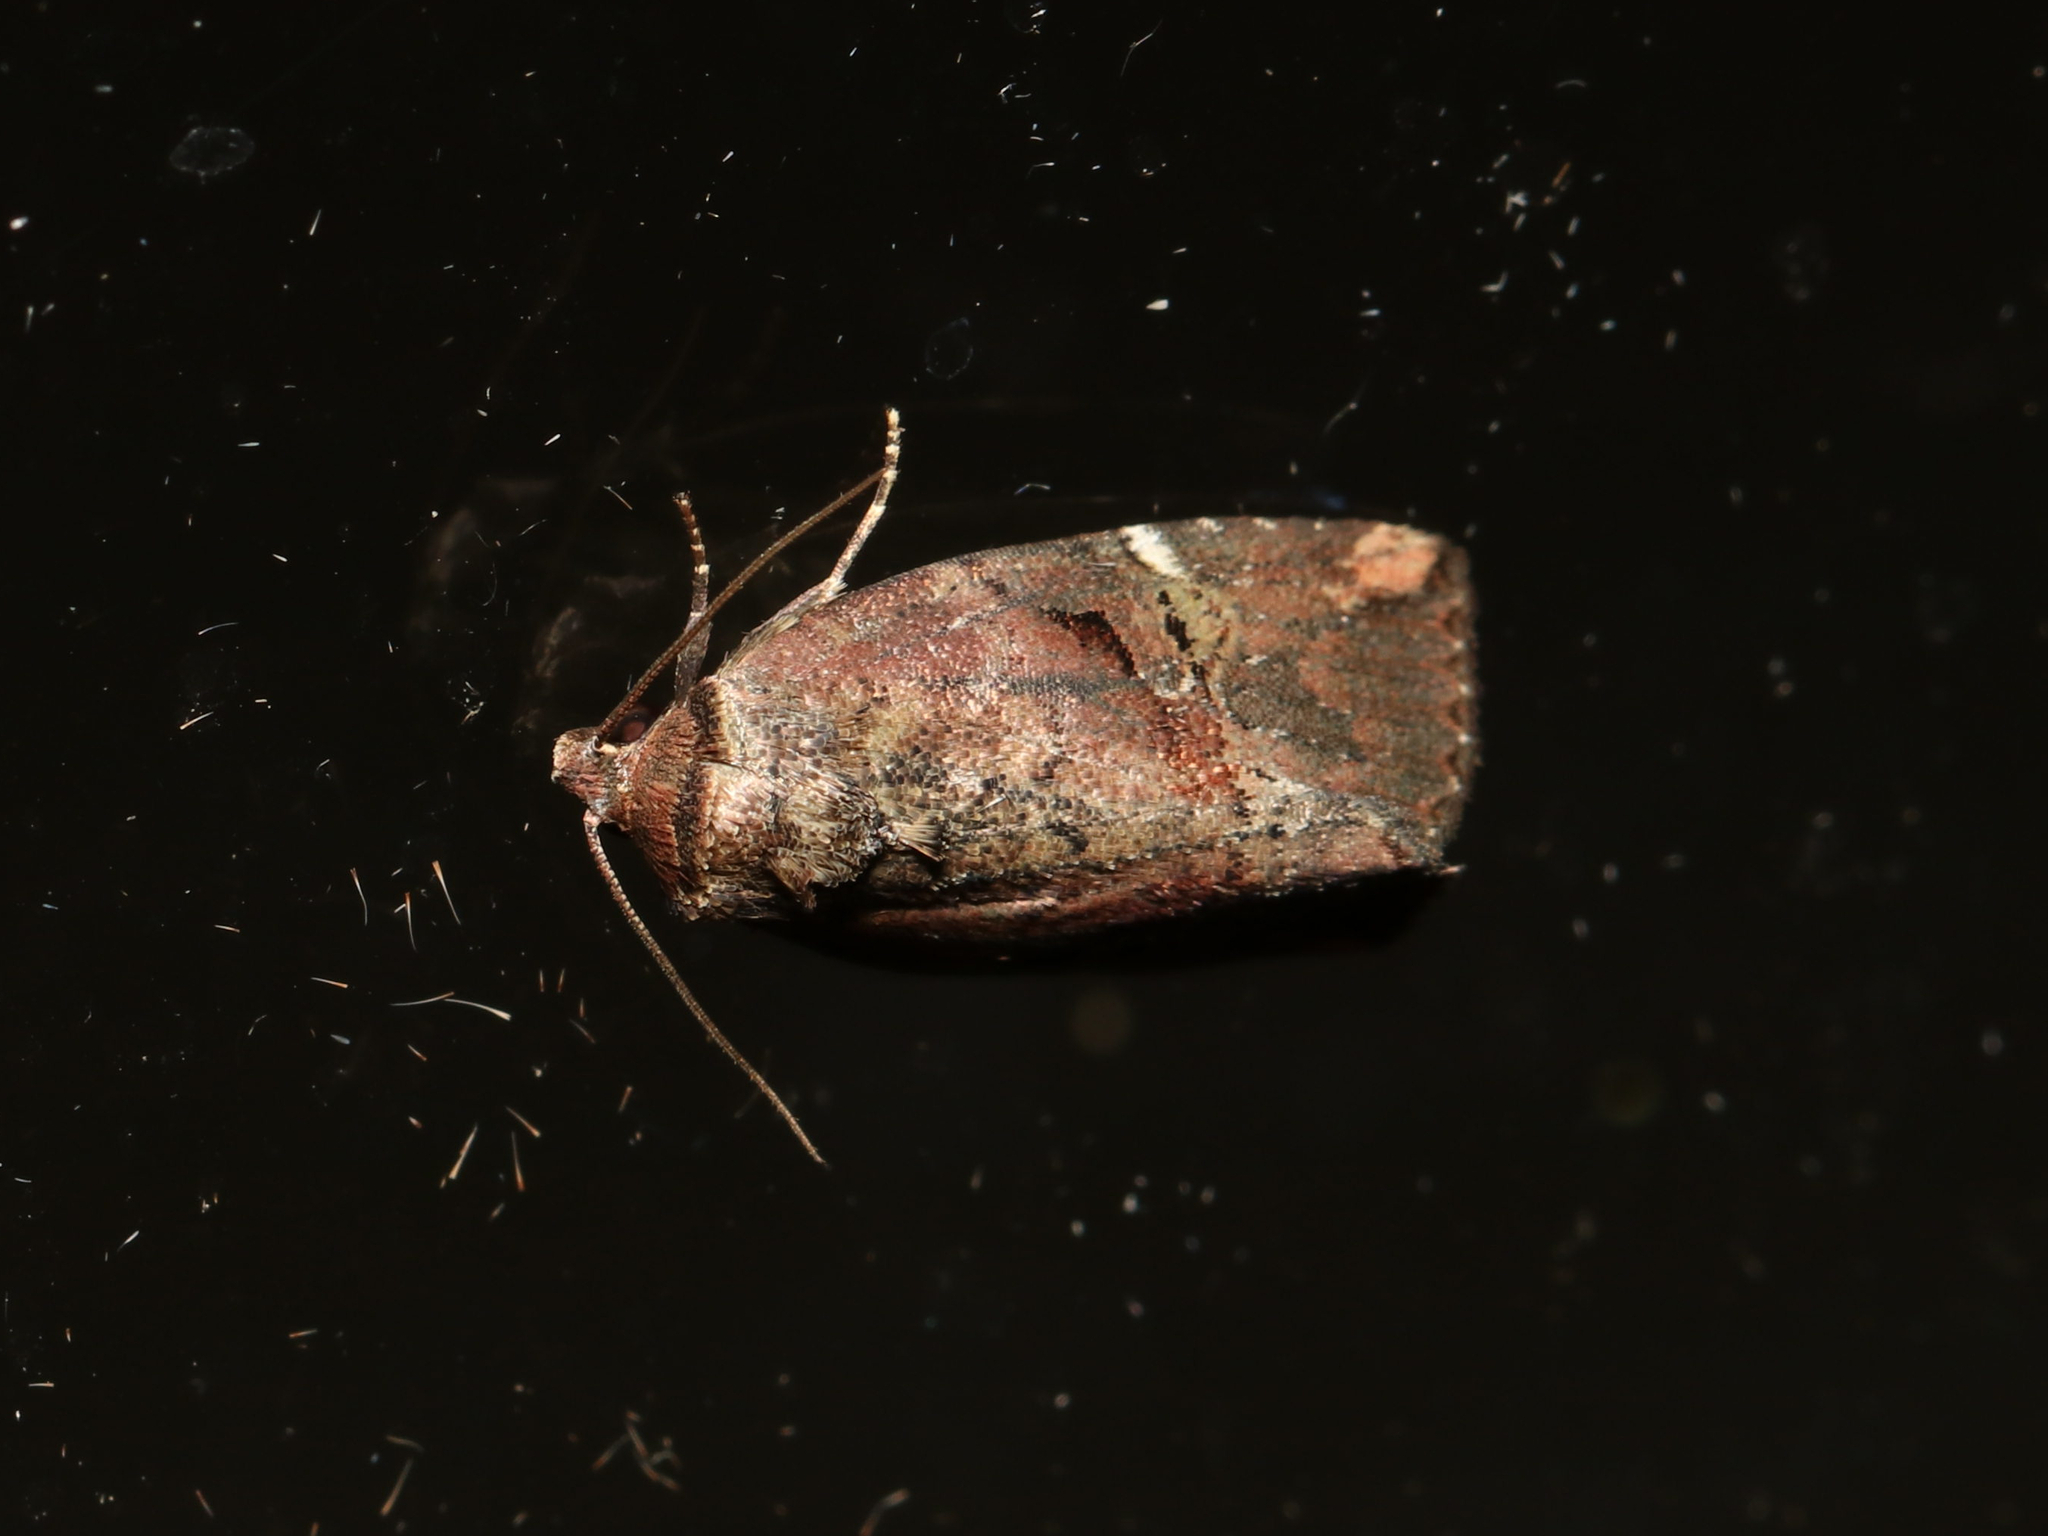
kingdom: Animalia
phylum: Arthropoda
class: Insecta
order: Lepidoptera
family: Noctuidae
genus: Elaphria
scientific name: Elaphria versicolor
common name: Fir harlequin
